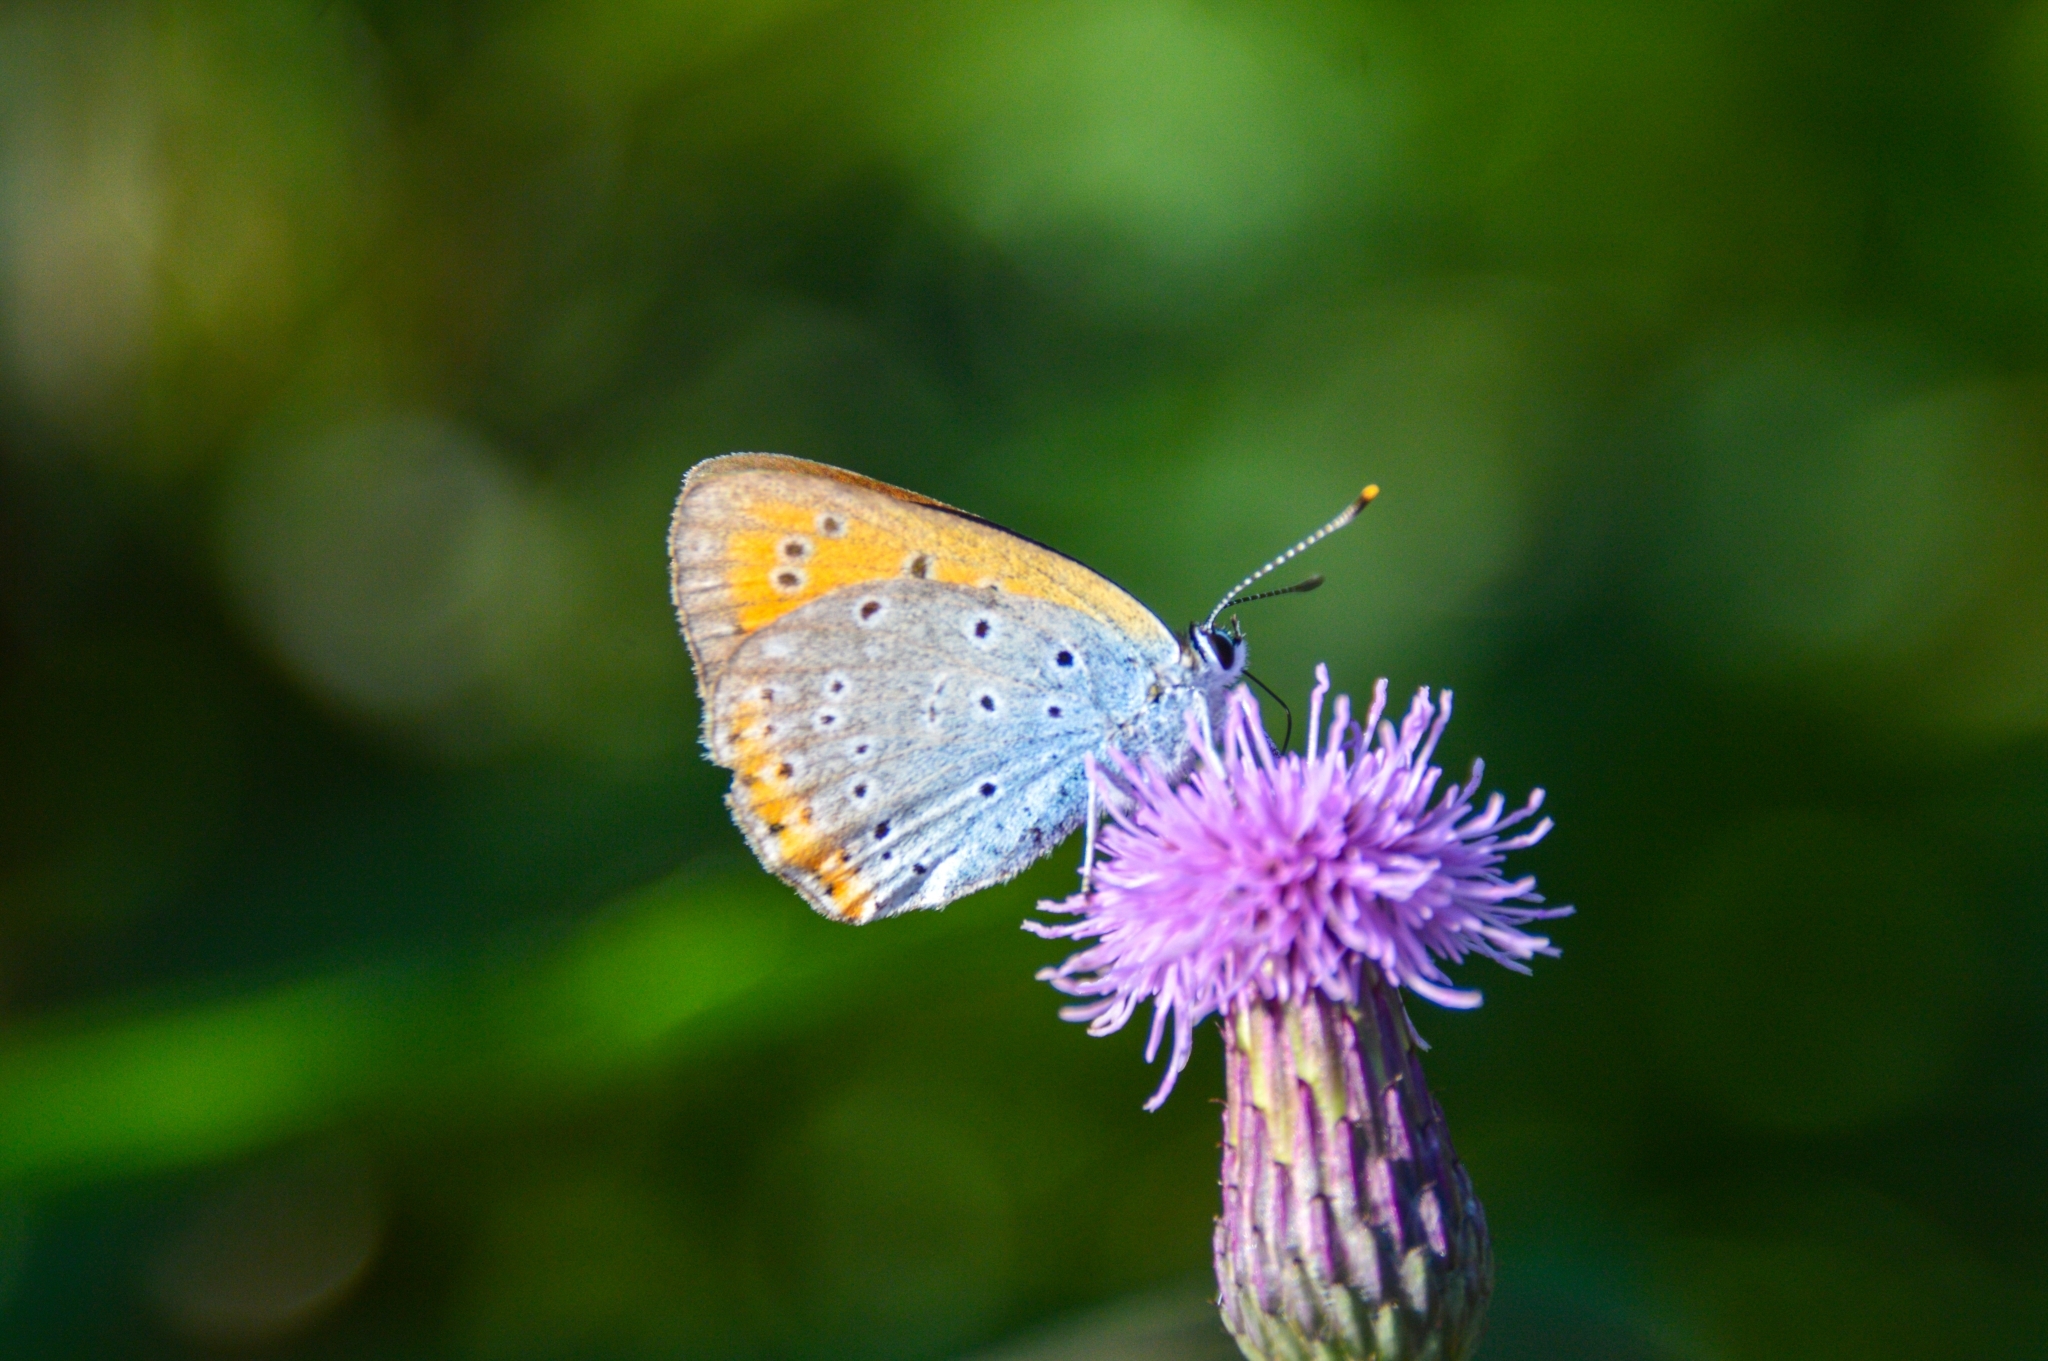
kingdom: Animalia
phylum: Arthropoda
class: Insecta
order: Lepidoptera
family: Lycaenidae
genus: Lycaena
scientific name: Lycaena dispar
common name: Large copper
